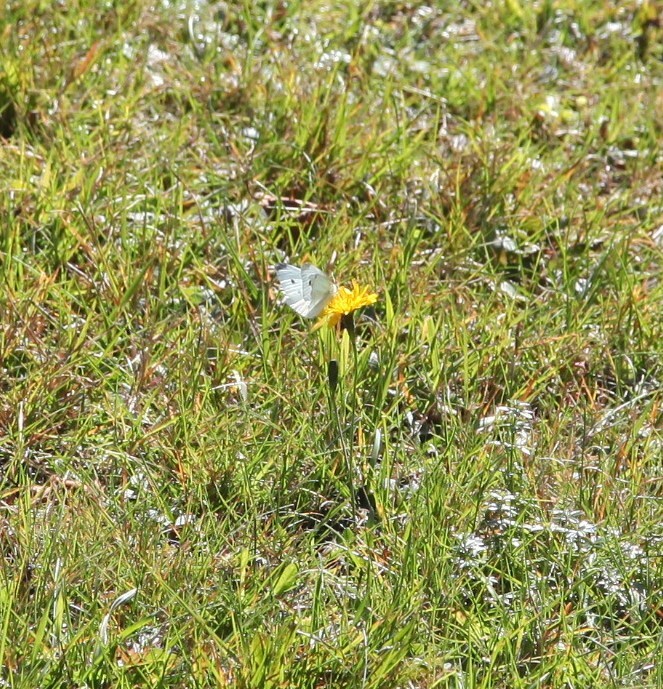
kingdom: Animalia
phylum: Arthropoda
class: Insecta
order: Lepidoptera
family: Pieridae
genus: Pieris
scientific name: Pieris rapae
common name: Small white
